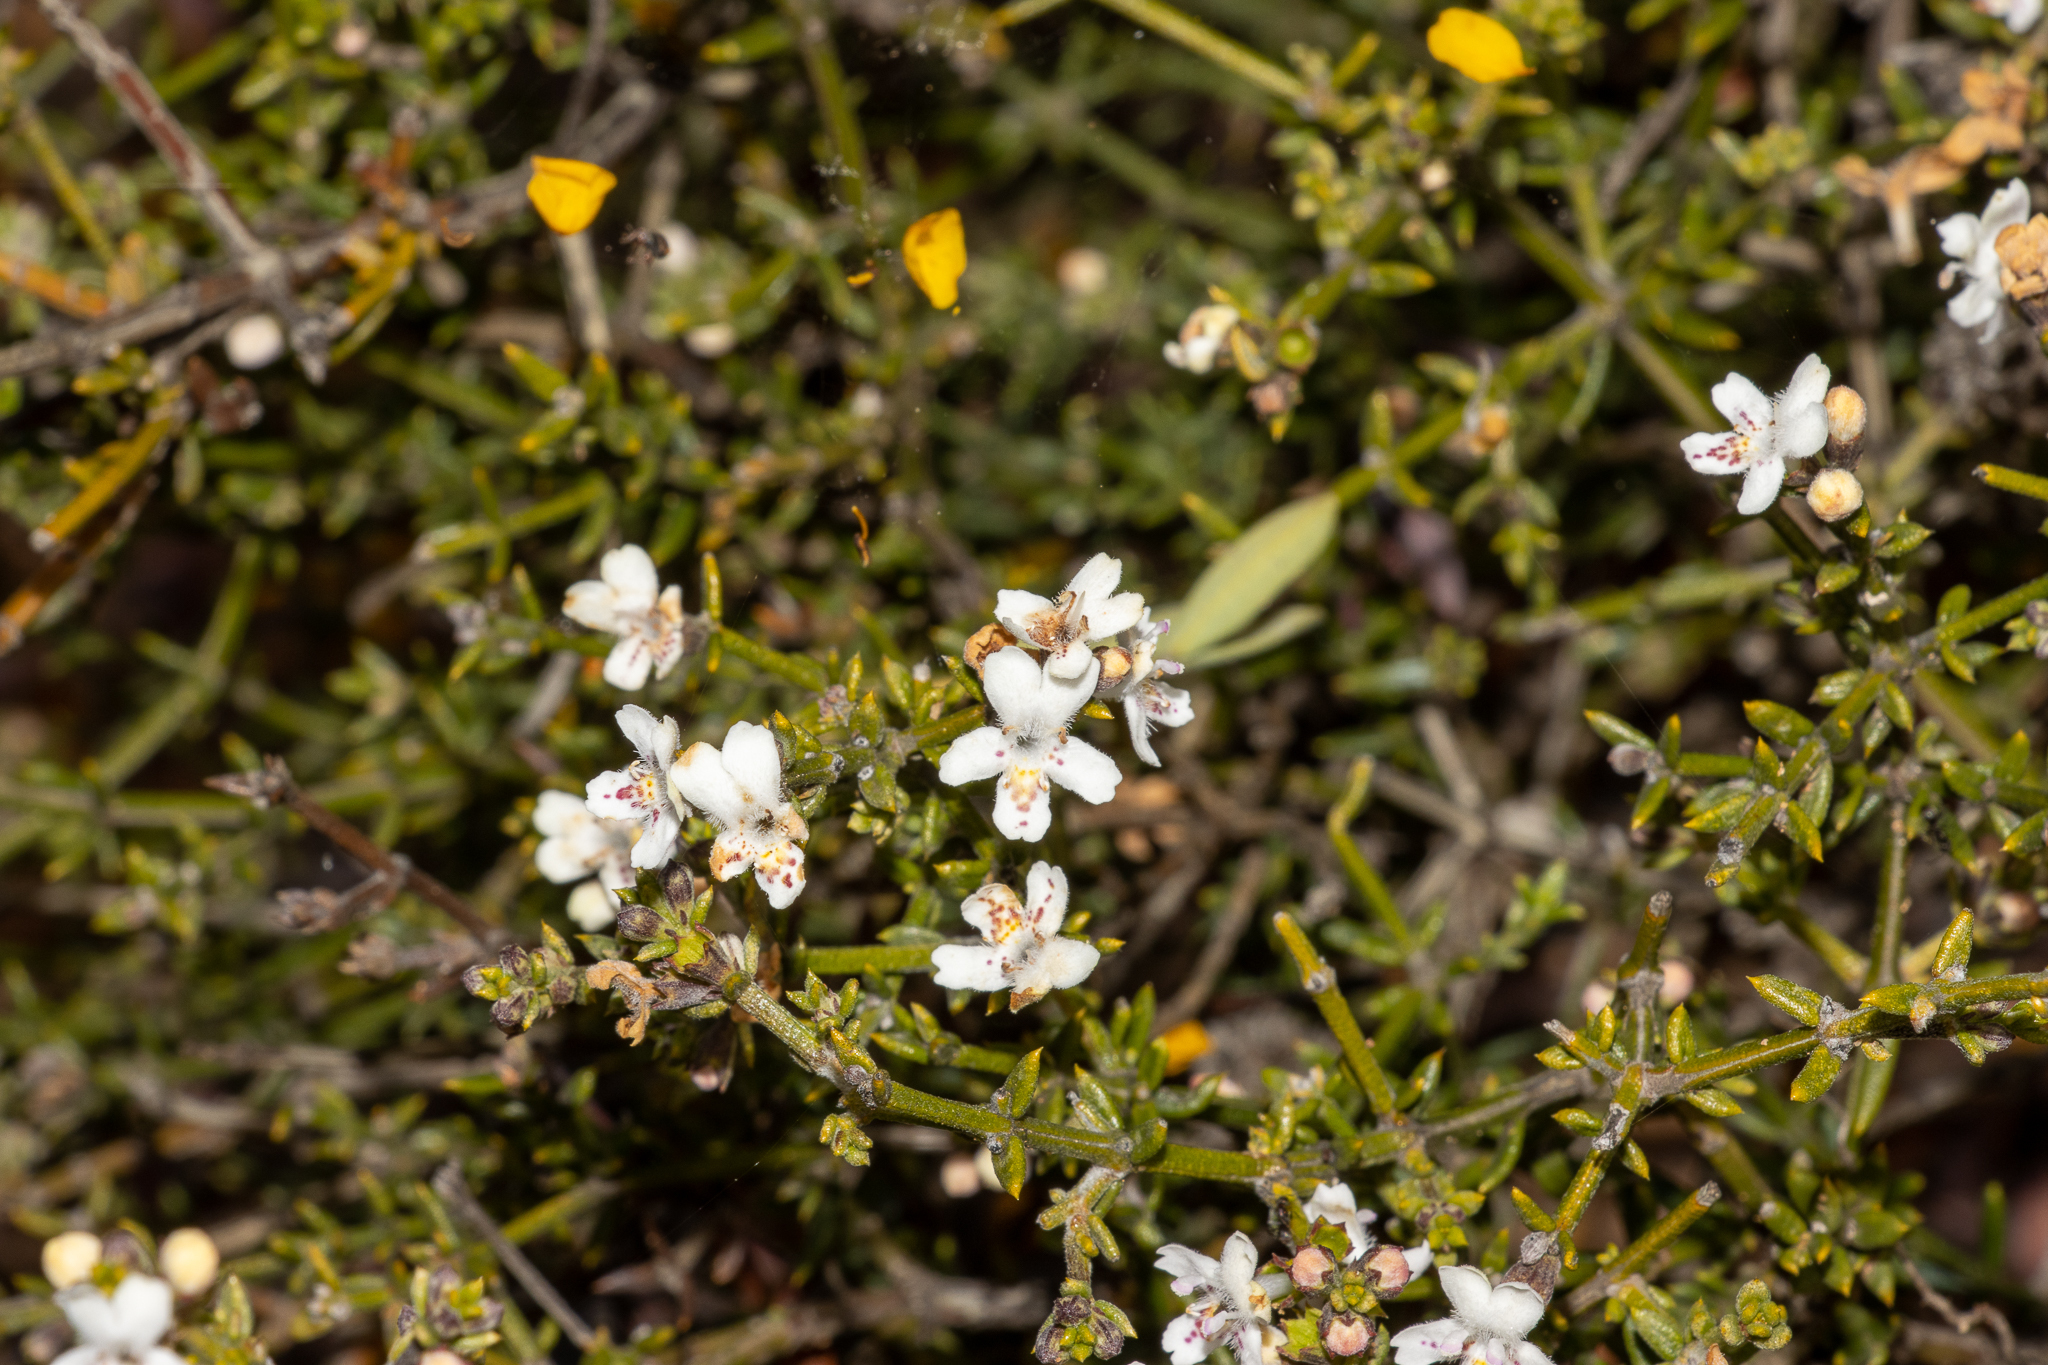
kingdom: Plantae
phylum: Tracheophyta
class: Magnoliopsida
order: Lamiales
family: Lamiaceae
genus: Westringia
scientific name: Westringia rigida
